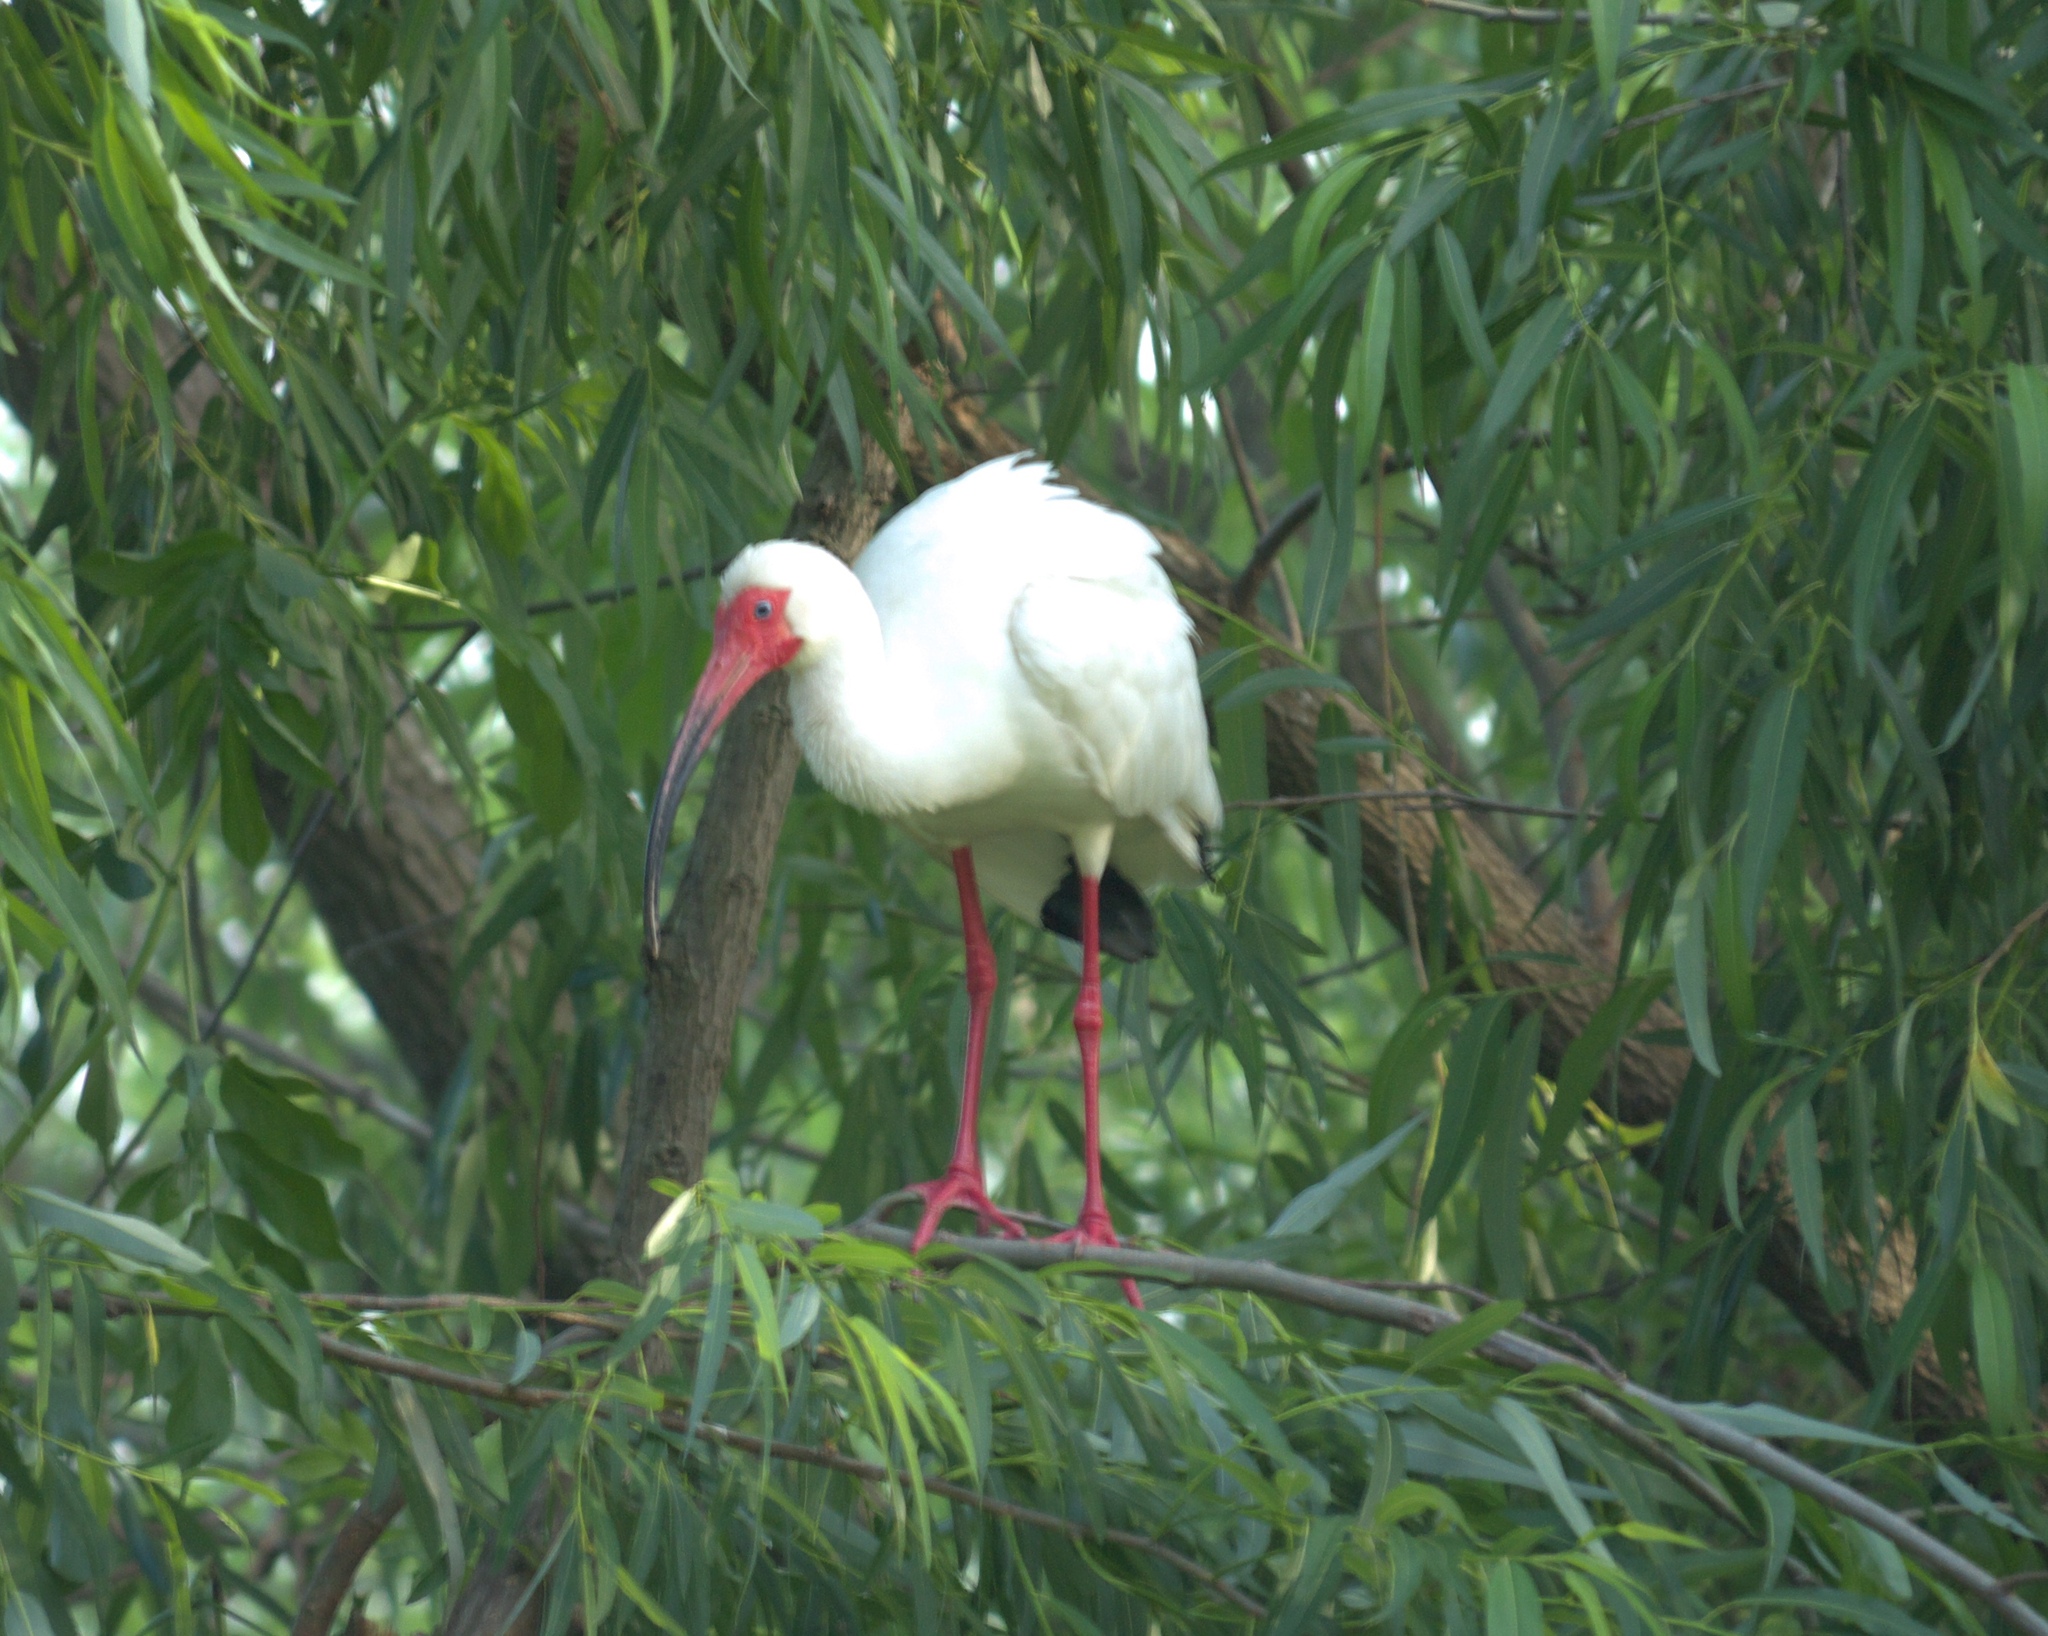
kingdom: Animalia
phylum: Chordata
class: Aves
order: Pelecaniformes
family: Threskiornithidae
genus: Eudocimus
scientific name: Eudocimus albus
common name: White ibis
